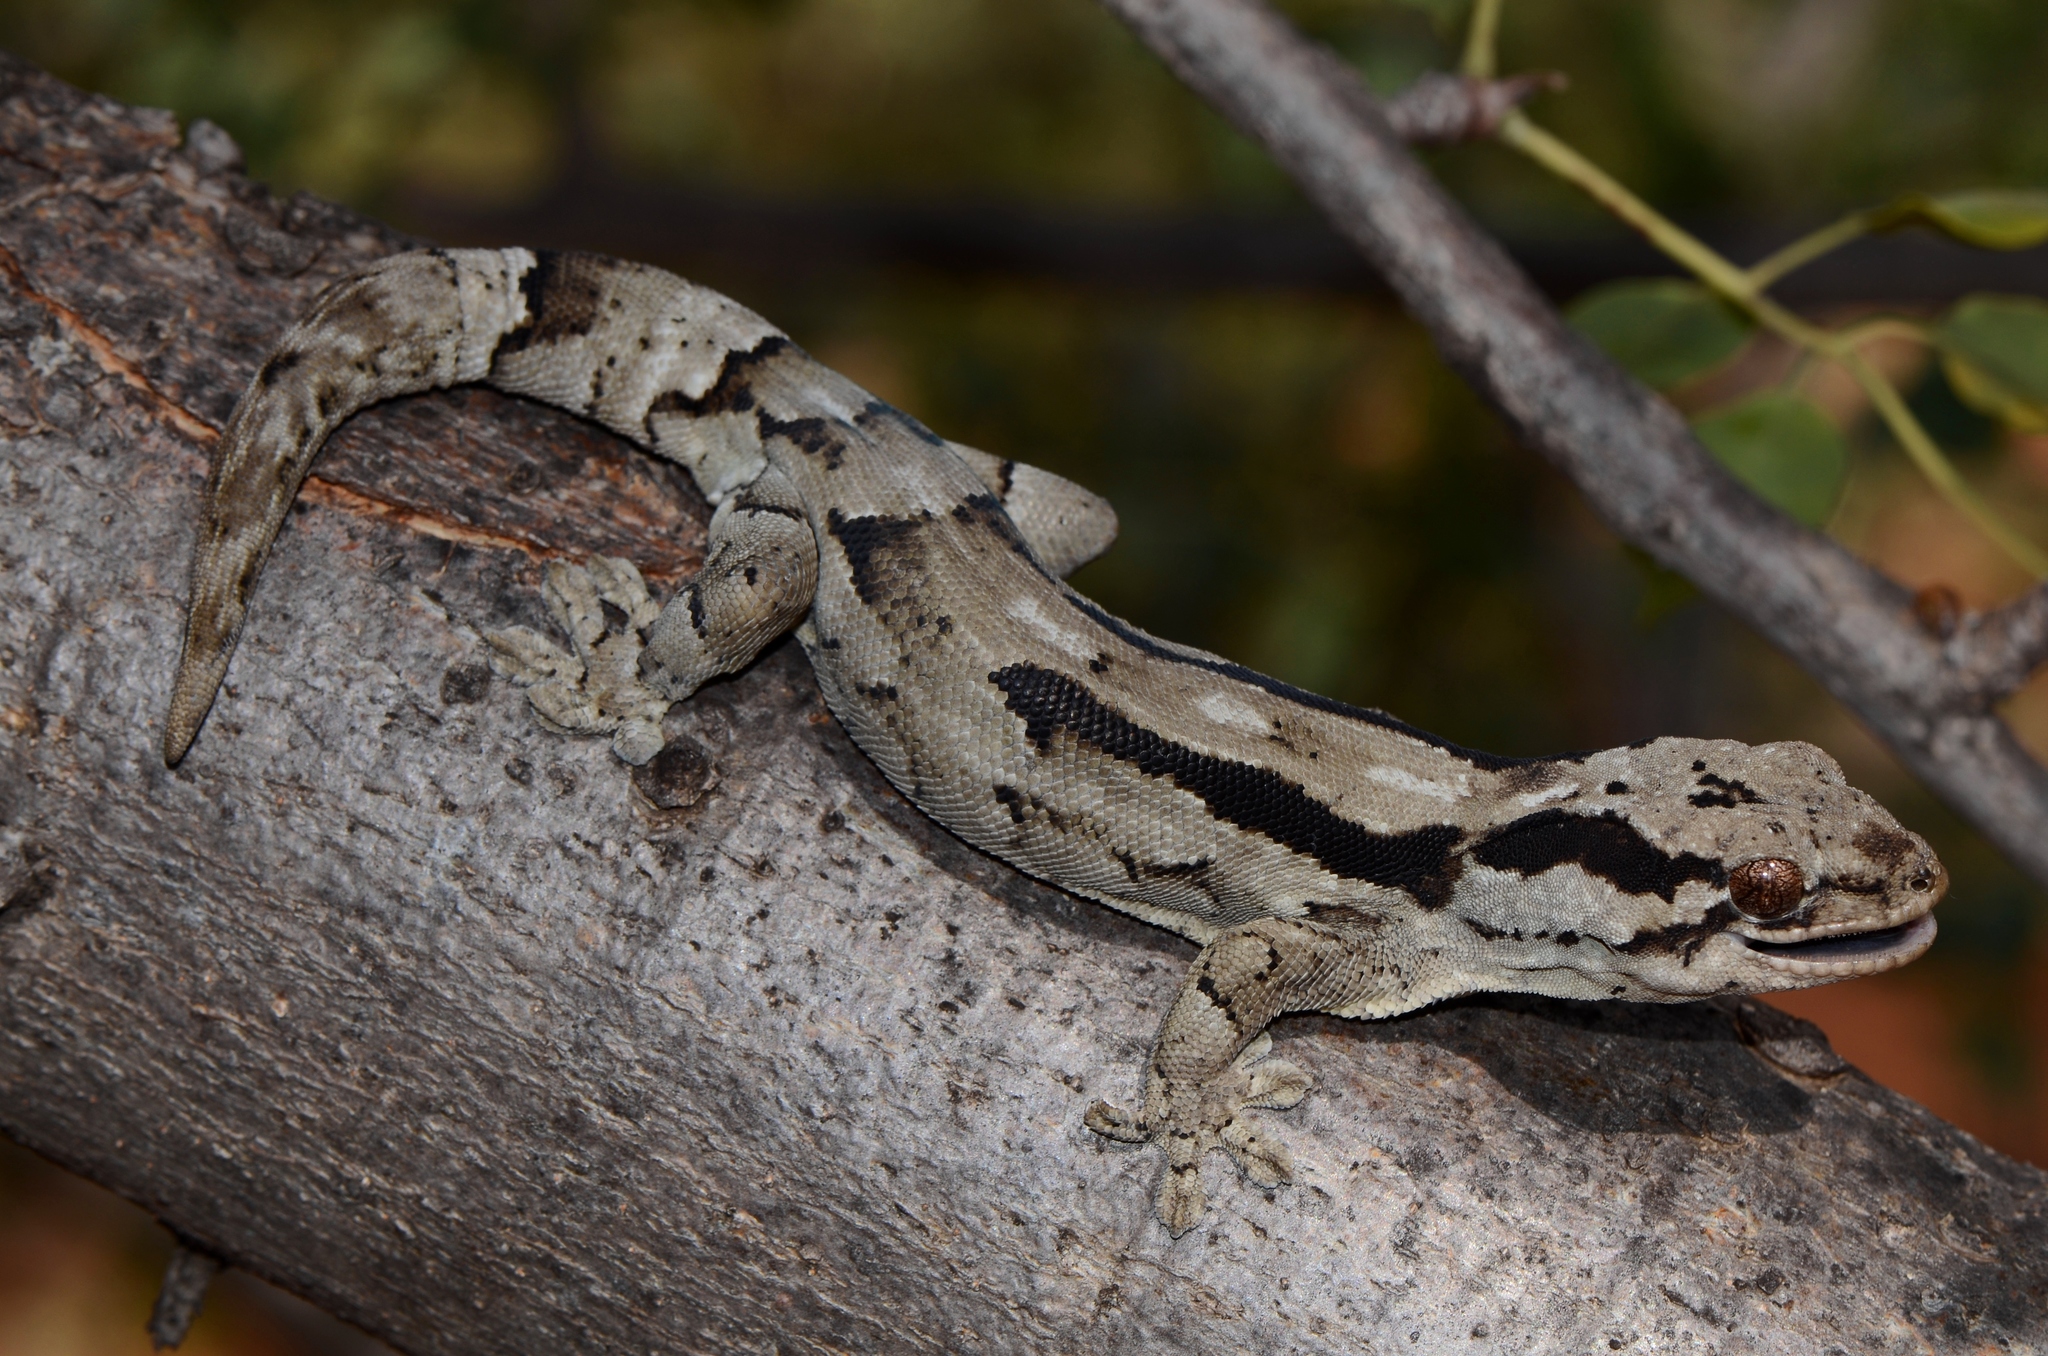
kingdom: Animalia
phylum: Chordata
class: Squamata
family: Gekkonidae
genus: Homopholis
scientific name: Homopholis arnoldi
